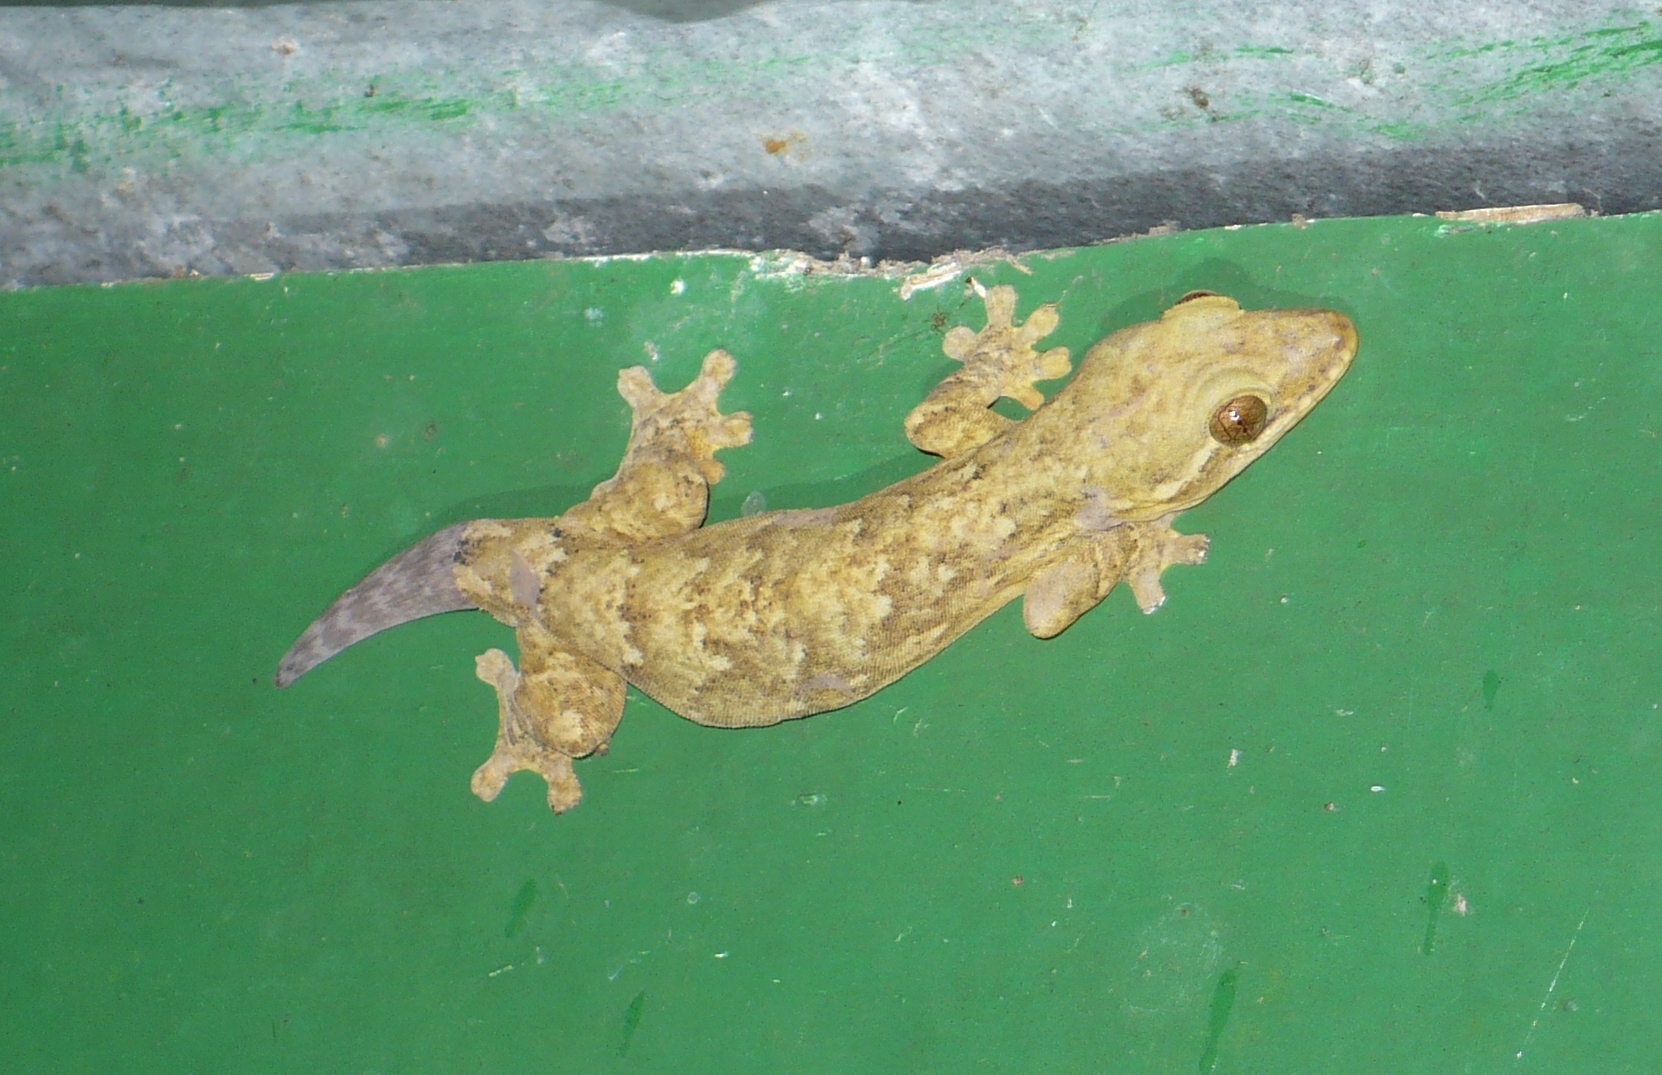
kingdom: Animalia
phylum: Chordata
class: Squamata
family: Phyllodactylidae
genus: Thecadactylus
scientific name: Thecadactylus rapicauda
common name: Turnip-tailed gecko
